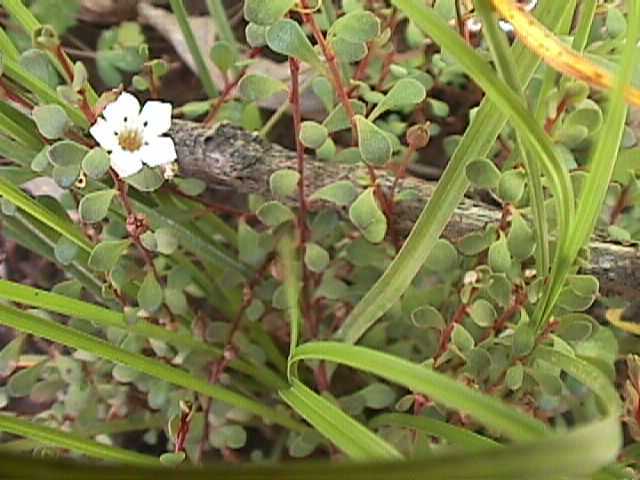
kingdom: Plantae
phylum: Tracheophyta
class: Magnoliopsida
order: Ericales
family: Primulaceae
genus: Samolus
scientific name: Samolus repens
